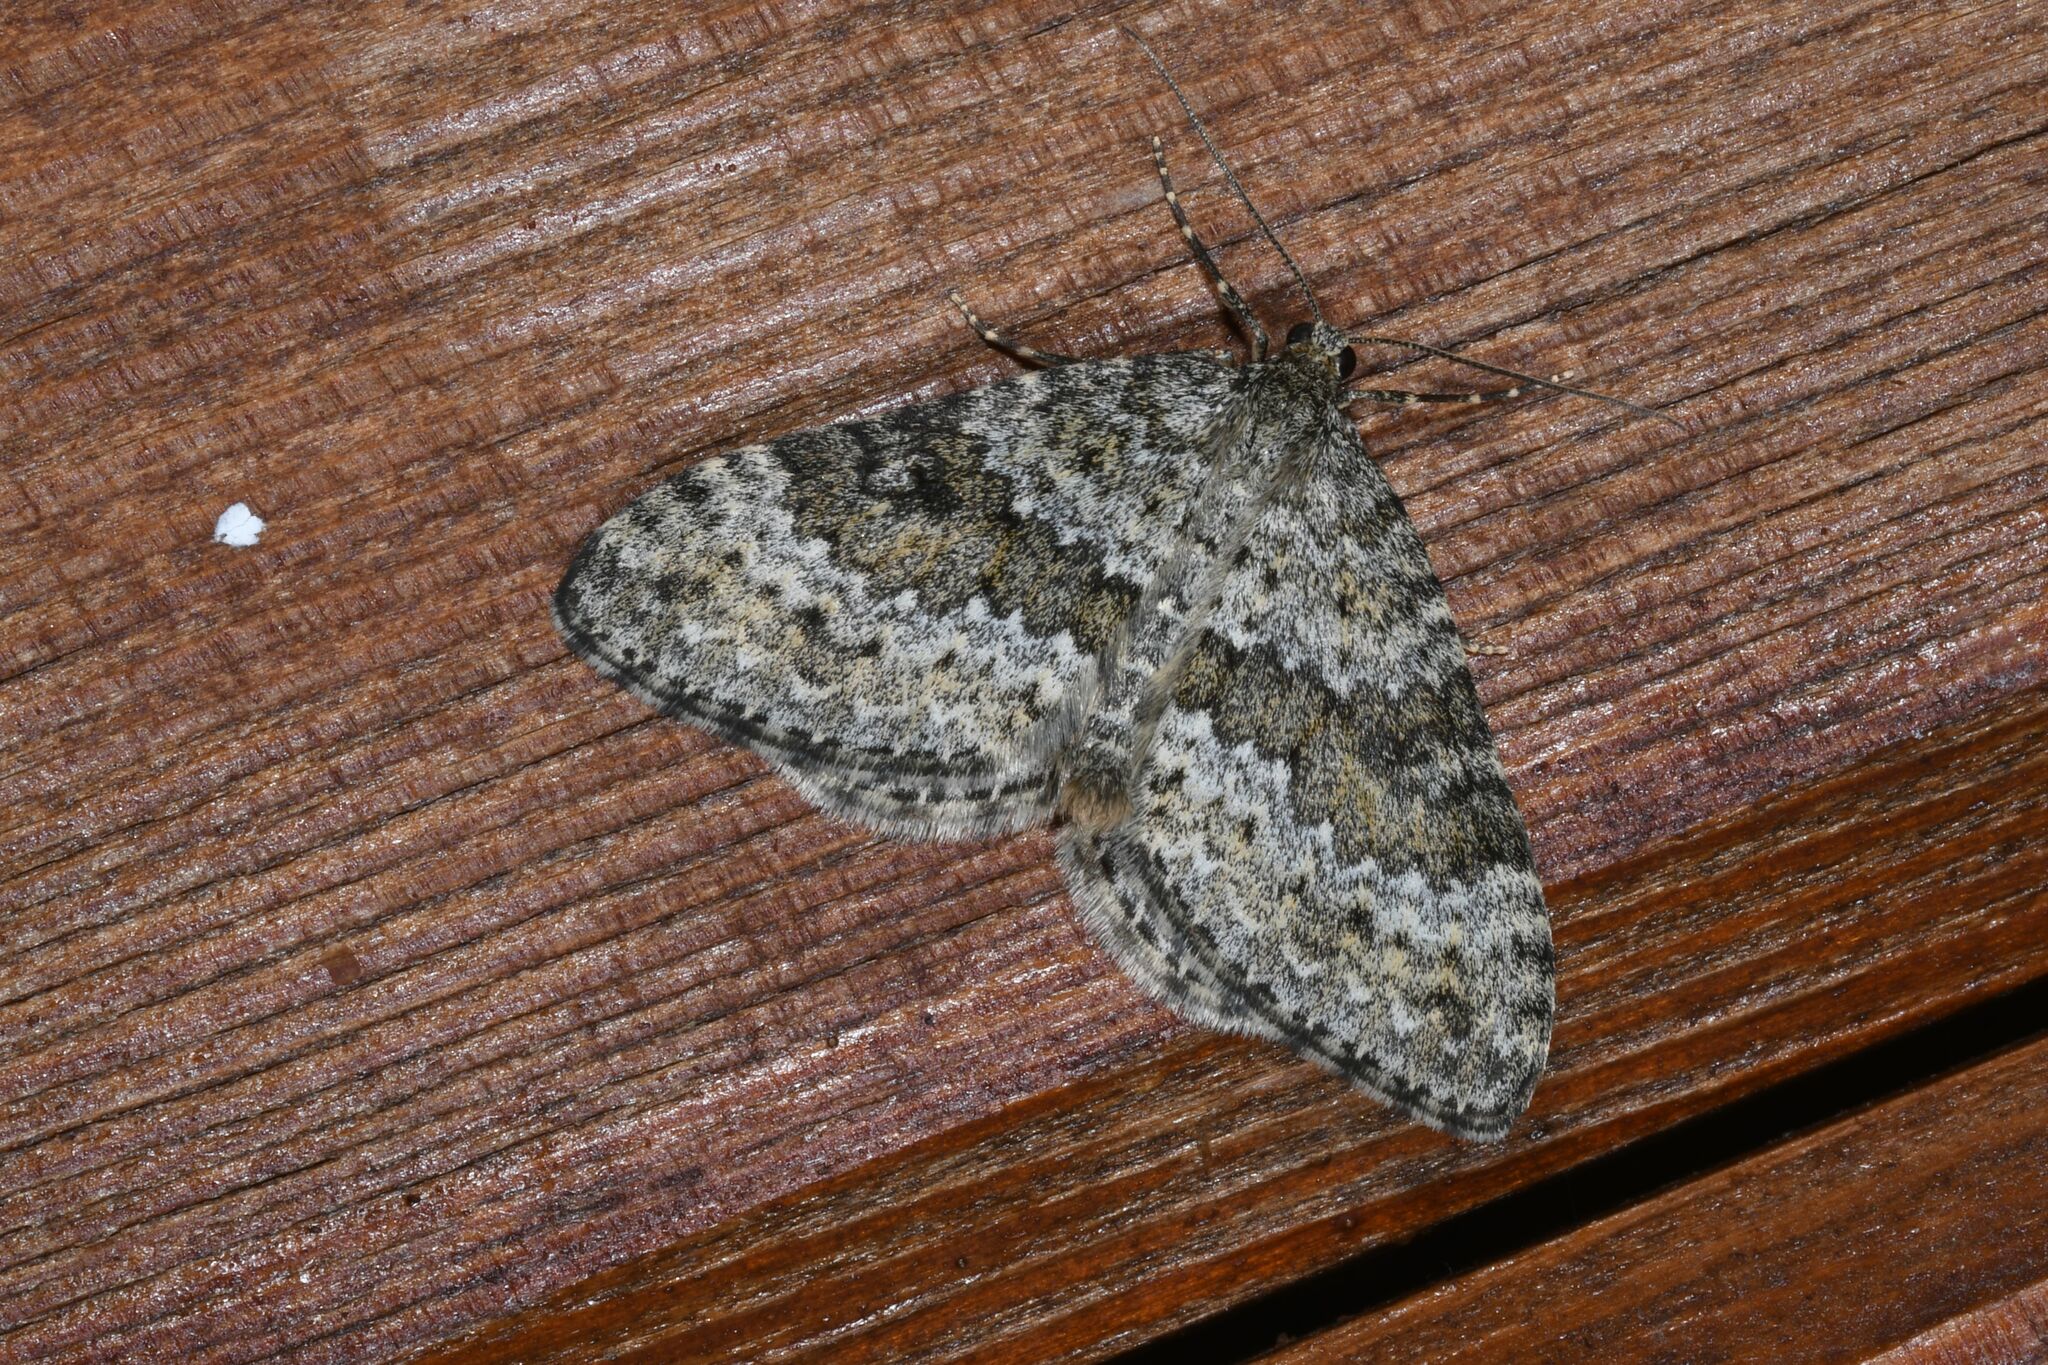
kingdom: Animalia
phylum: Arthropoda
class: Insecta
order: Lepidoptera
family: Geometridae
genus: Entephria
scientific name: Entephria caesiata
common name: Grey mountain moth
